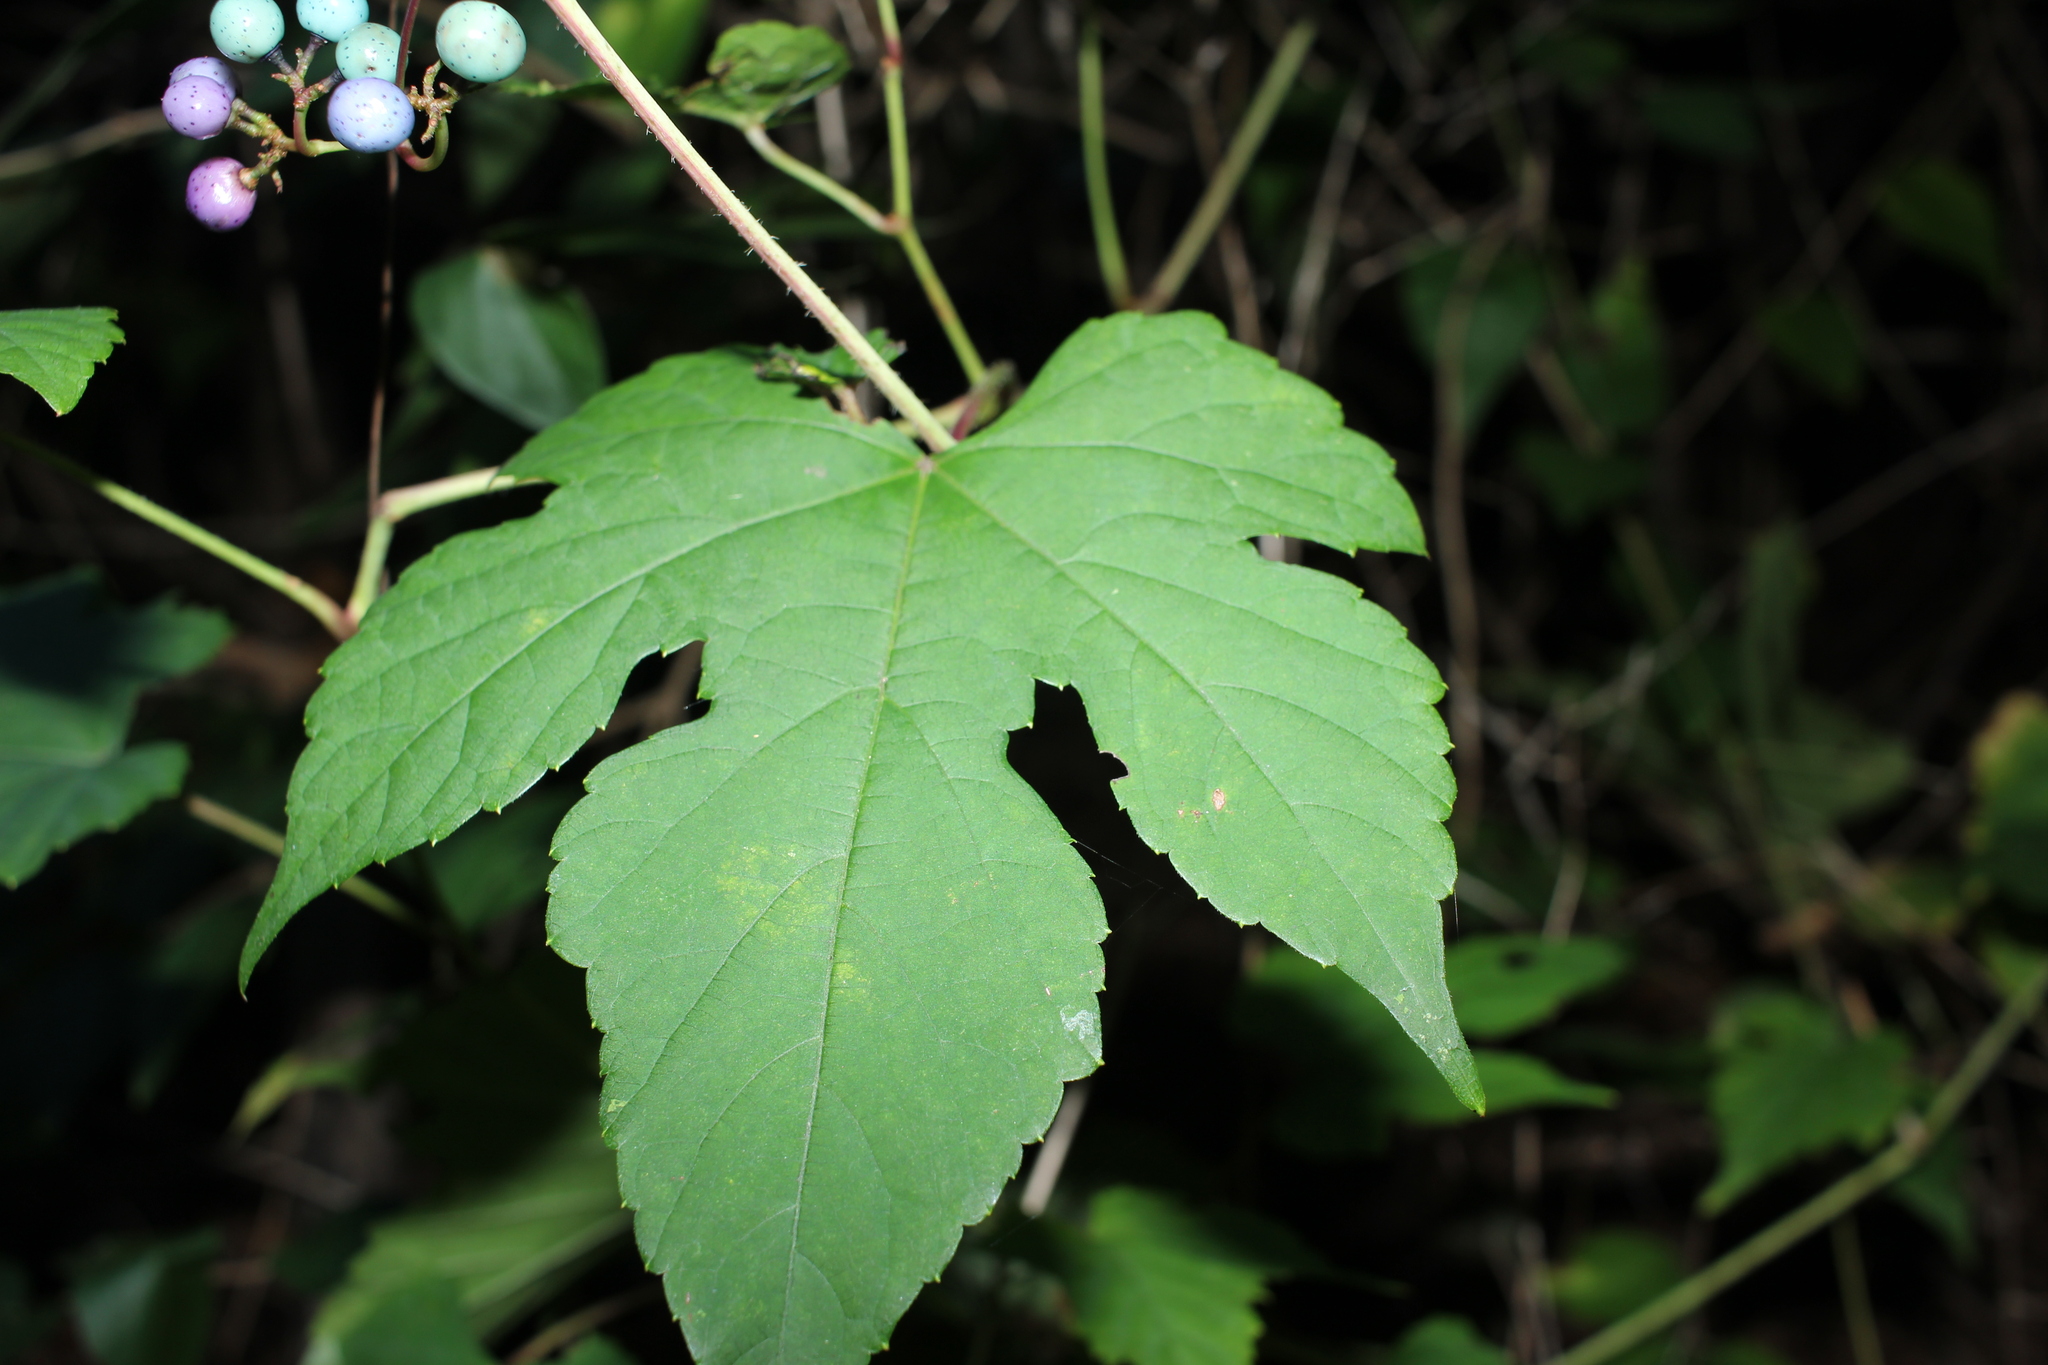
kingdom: Plantae
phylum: Tracheophyta
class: Magnoliopsida
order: Vitales
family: Vitaceae
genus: Ampelopsis
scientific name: Ampelopsis glandulosa
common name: Amur peppervine
